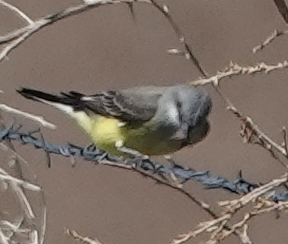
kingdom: Animalia
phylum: Chordata
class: Aves
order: Passeriformes
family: Tyrannidae
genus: Tyrannus
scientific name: Tyrannus vociferans
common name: Cassin's kingbird
